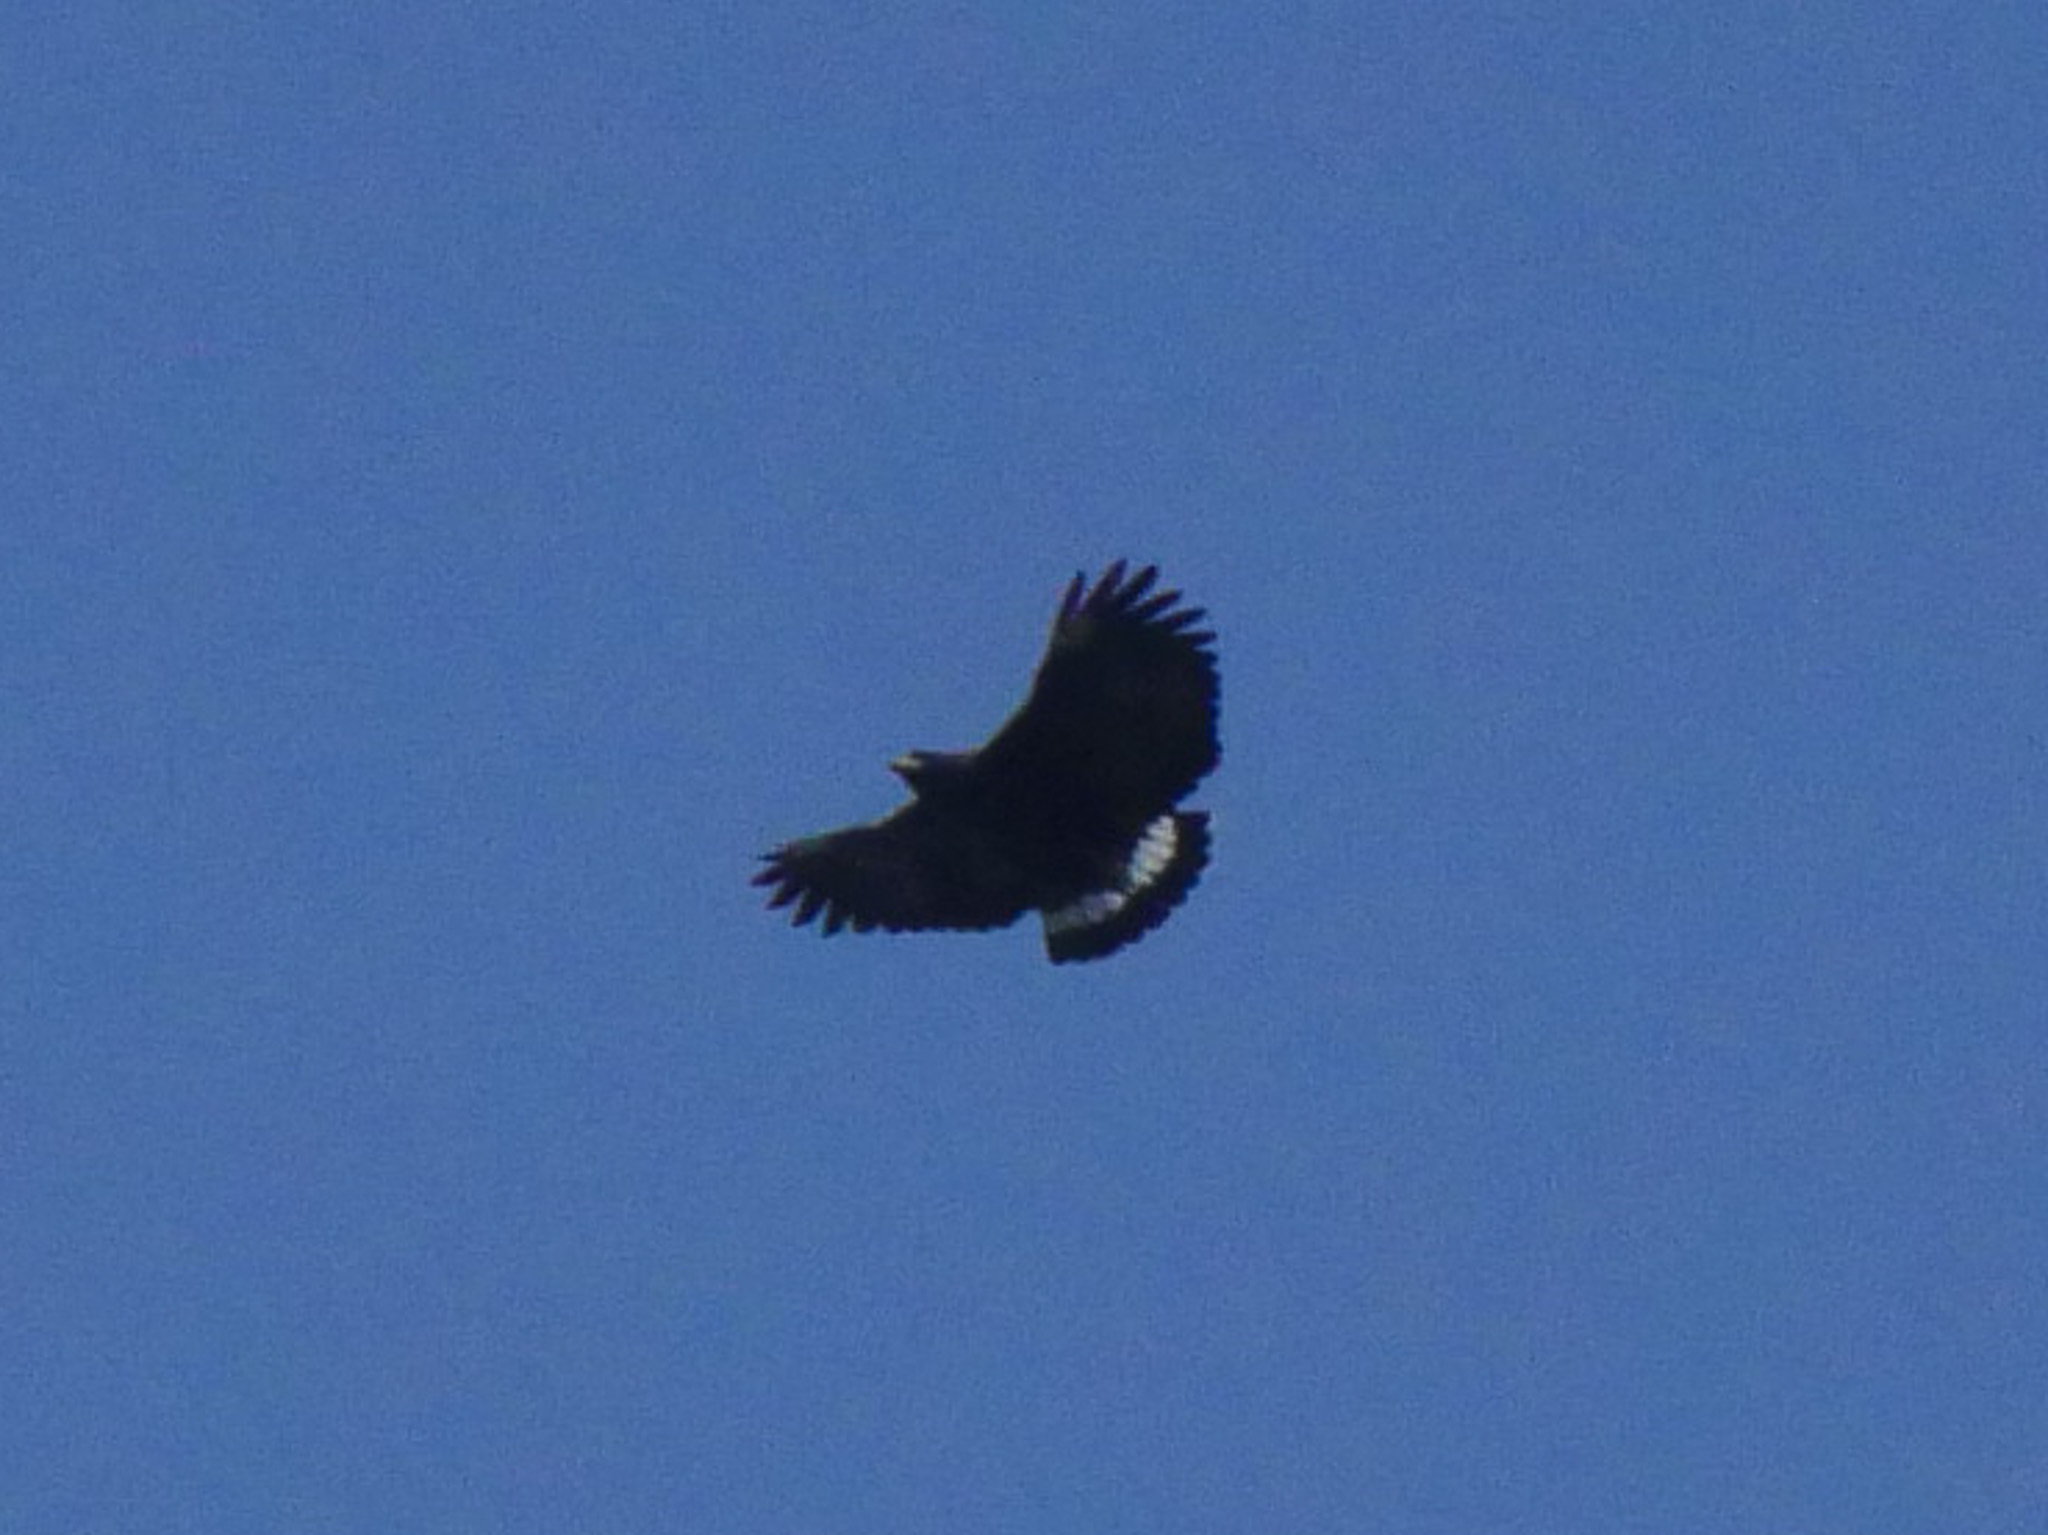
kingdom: Animalia
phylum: Chordata
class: Aves
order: Accipitriformes
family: Accipitridae
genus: Buteogallus
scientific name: Buteogallus anthracinus
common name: Common black hawk
